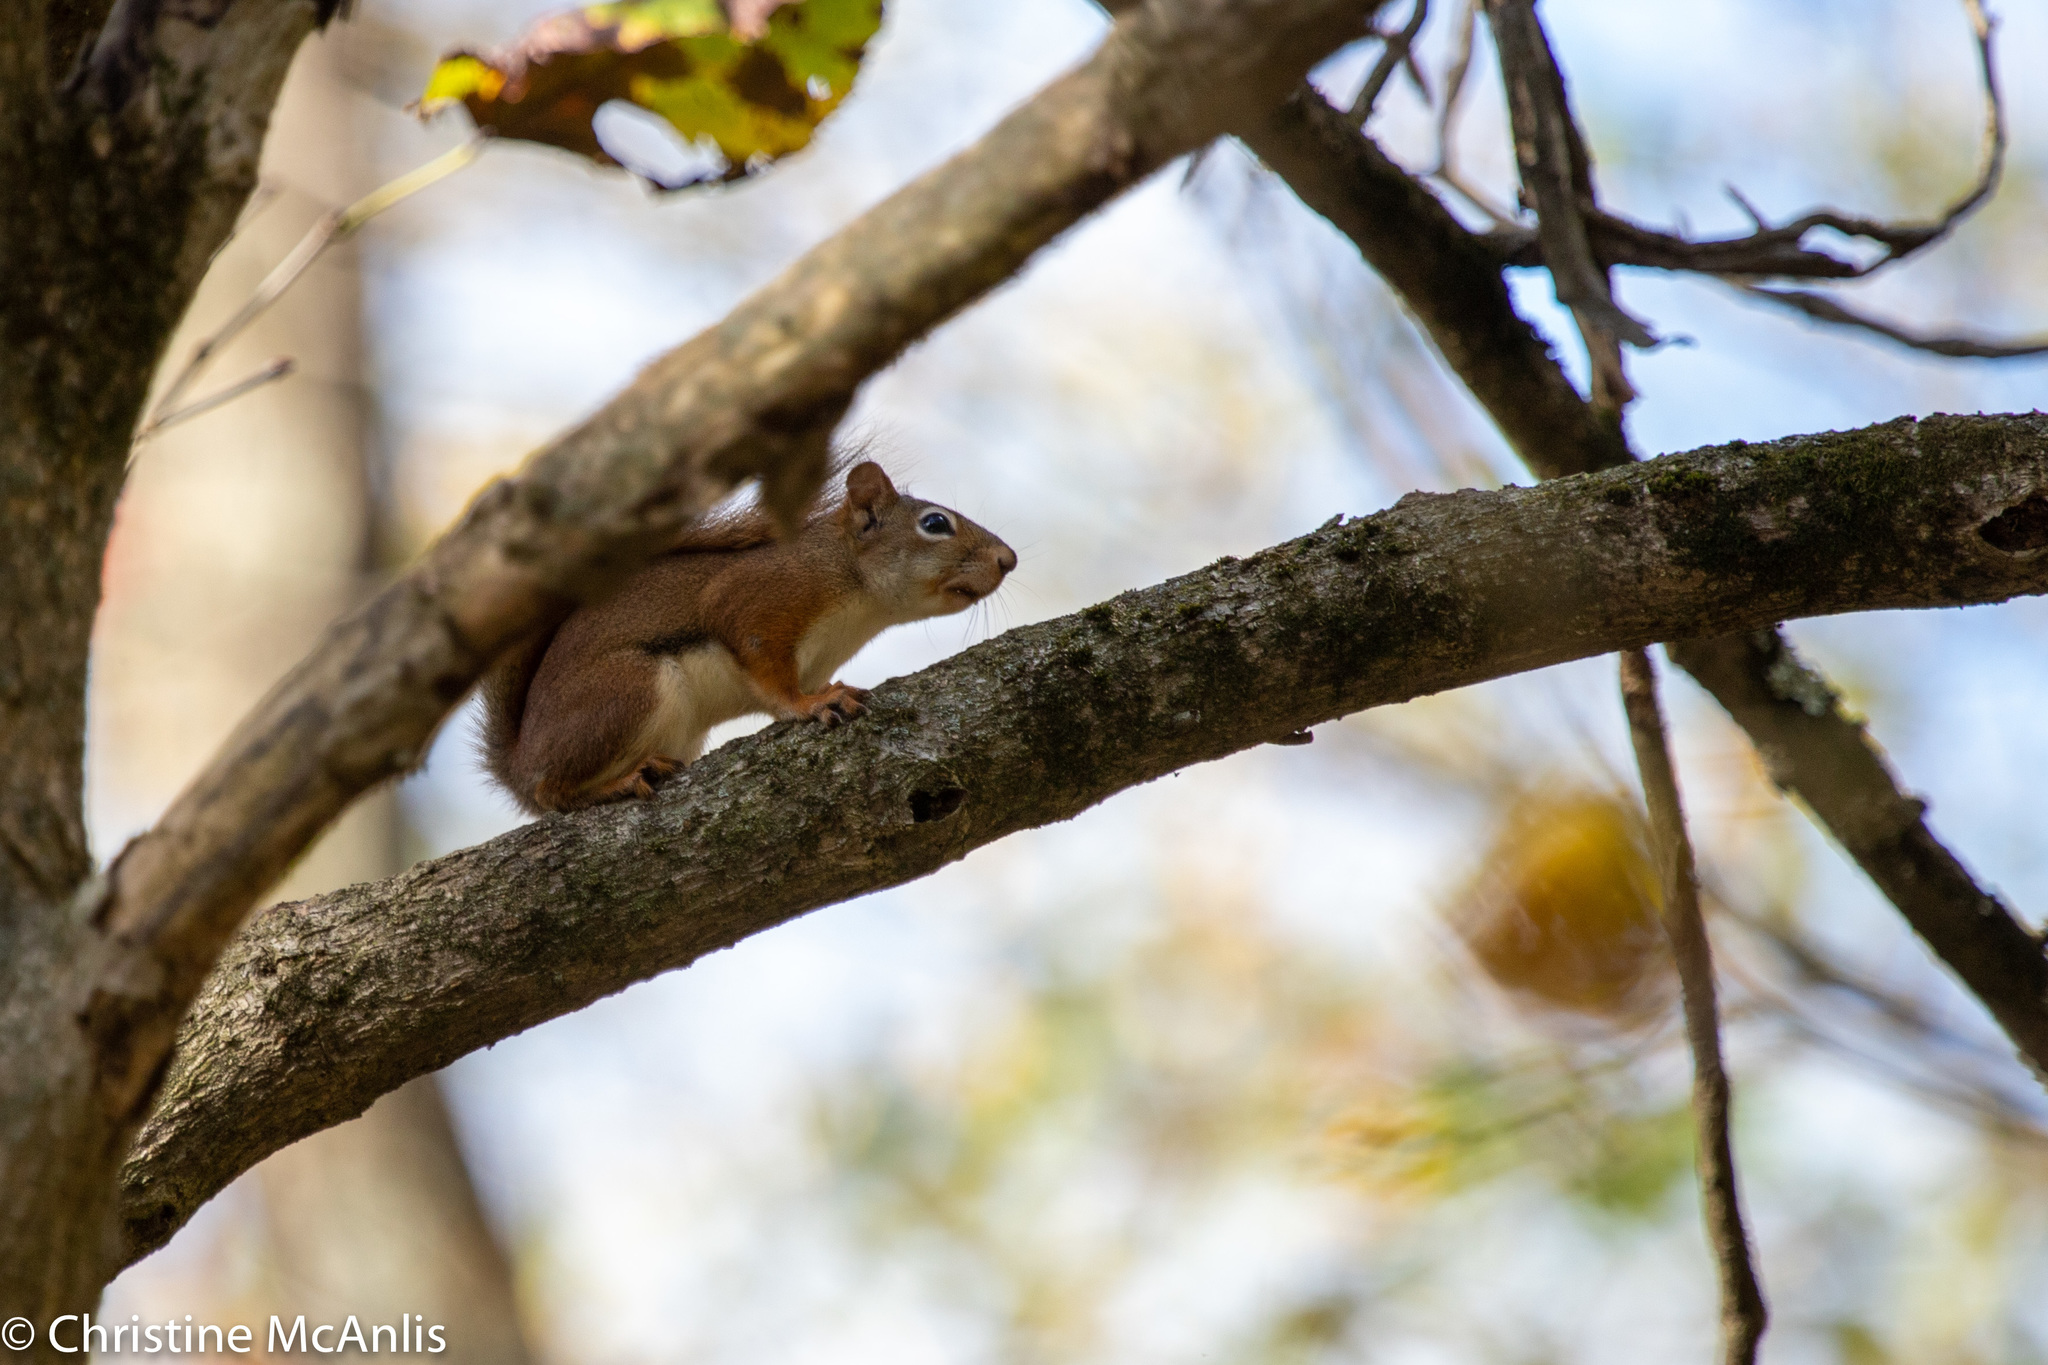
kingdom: Animalia
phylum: Chordata
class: Mammalia
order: Rodentia
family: Sciuridae
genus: Tamiasciurus
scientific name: Tamiasciurus hudsonicus
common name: Red squirrel
